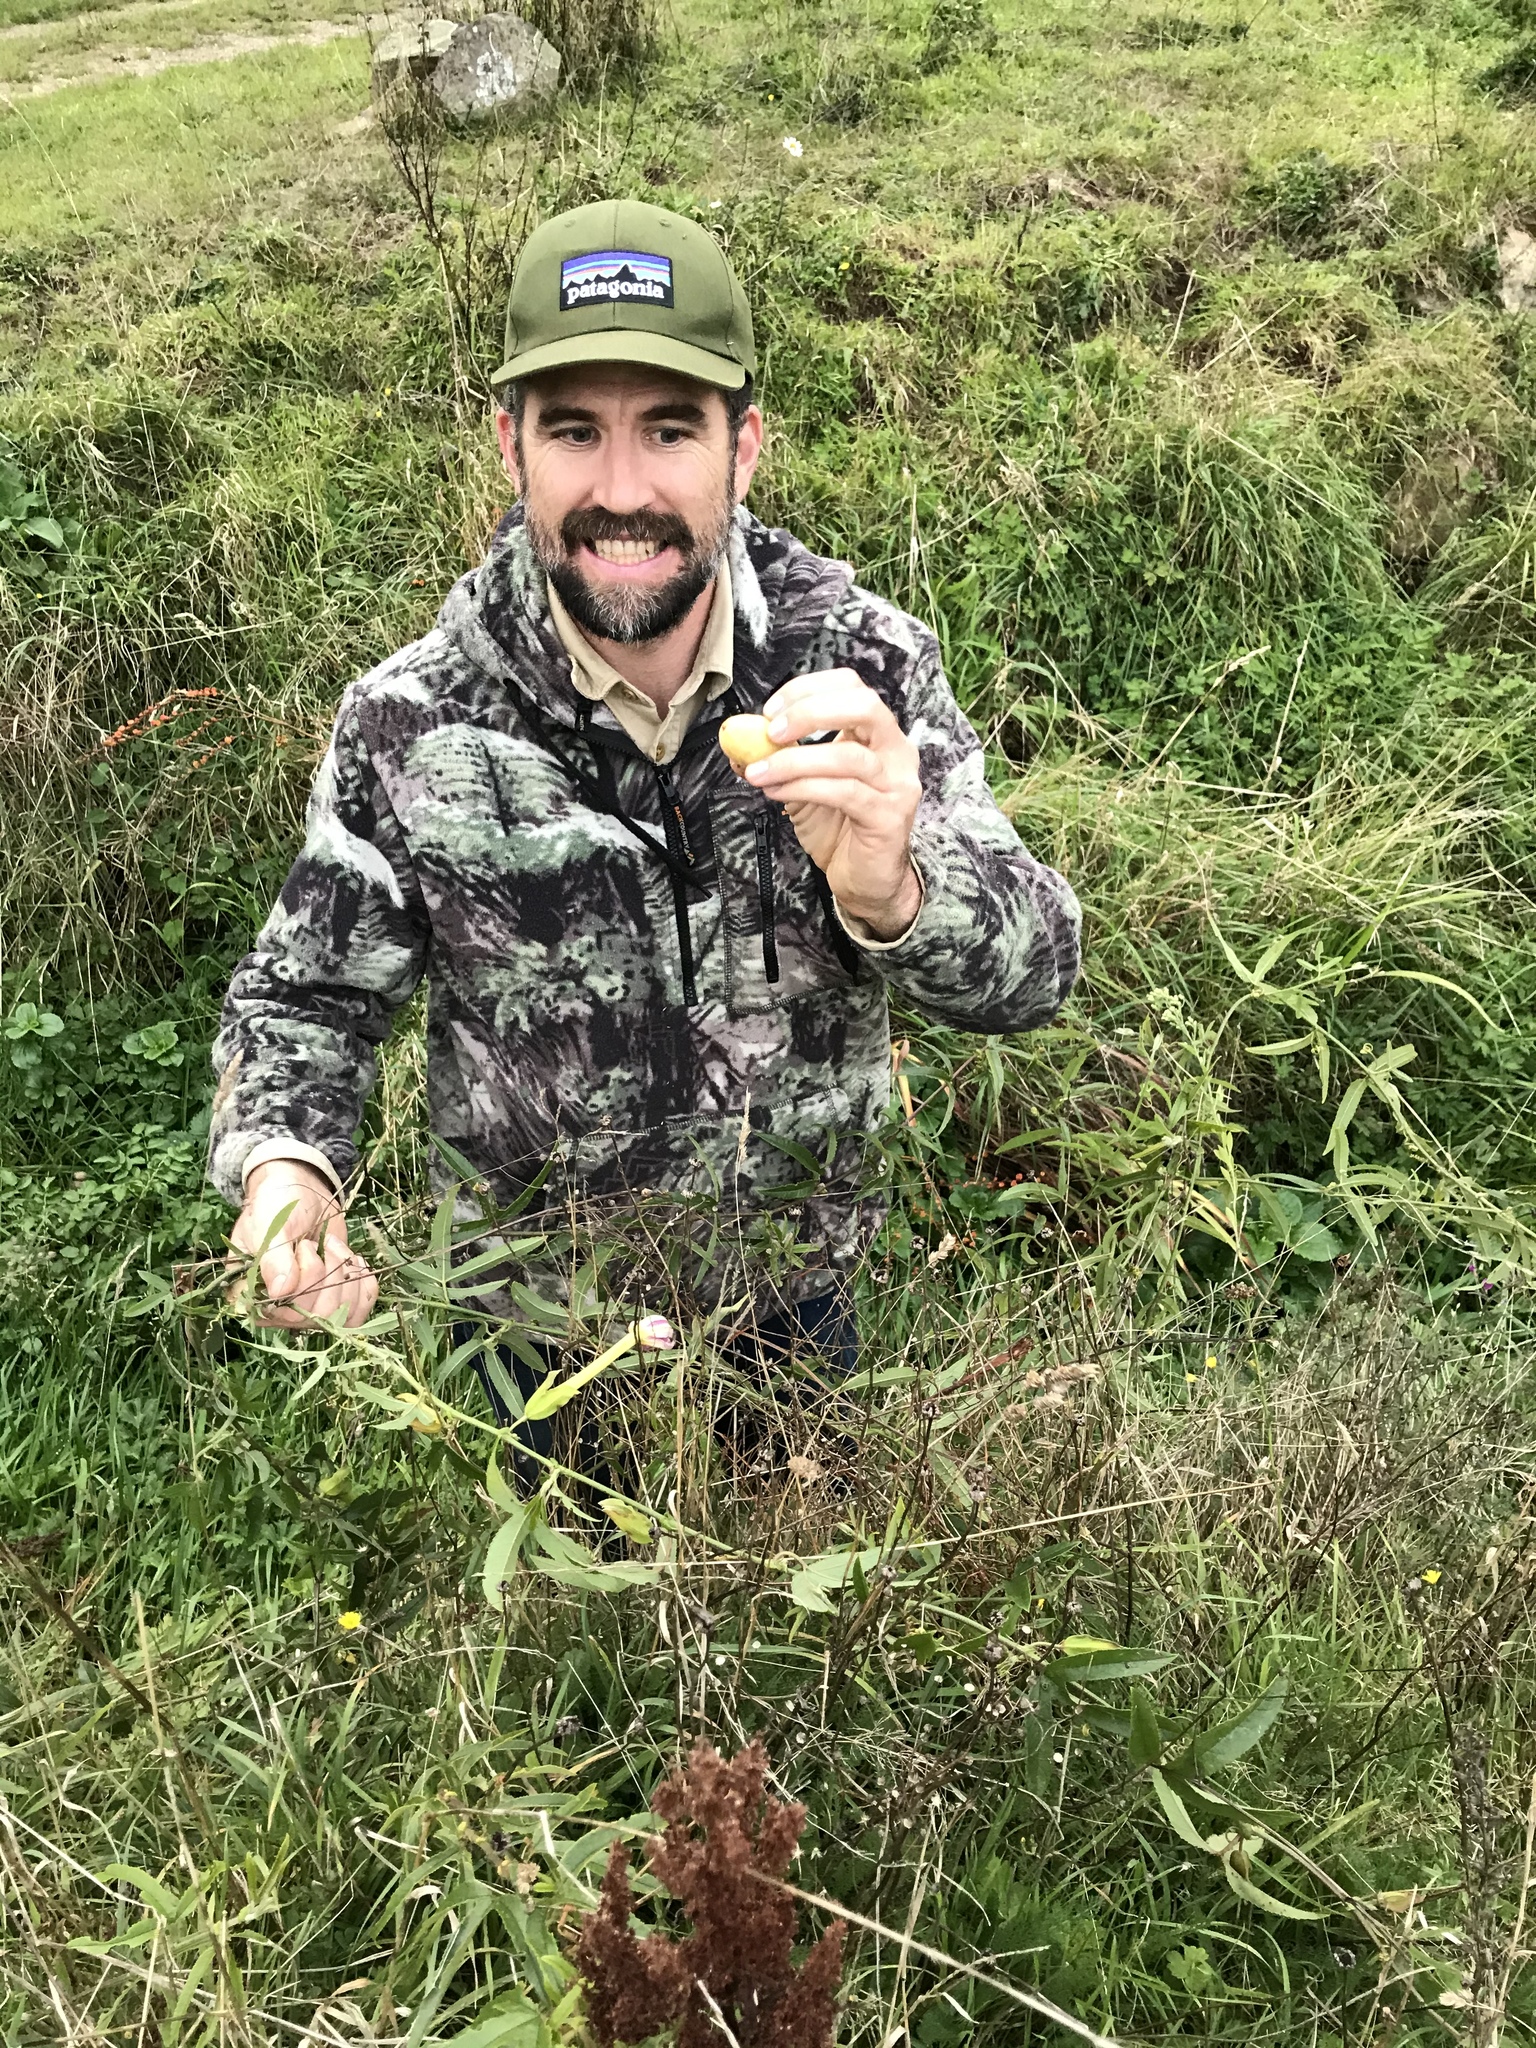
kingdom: Plantae
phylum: Tracheophyta
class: Magnoliopsida
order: Malpighiales
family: Passifloraceae
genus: Passiflora
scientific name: Passiflora tripartita
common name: Banana poka
